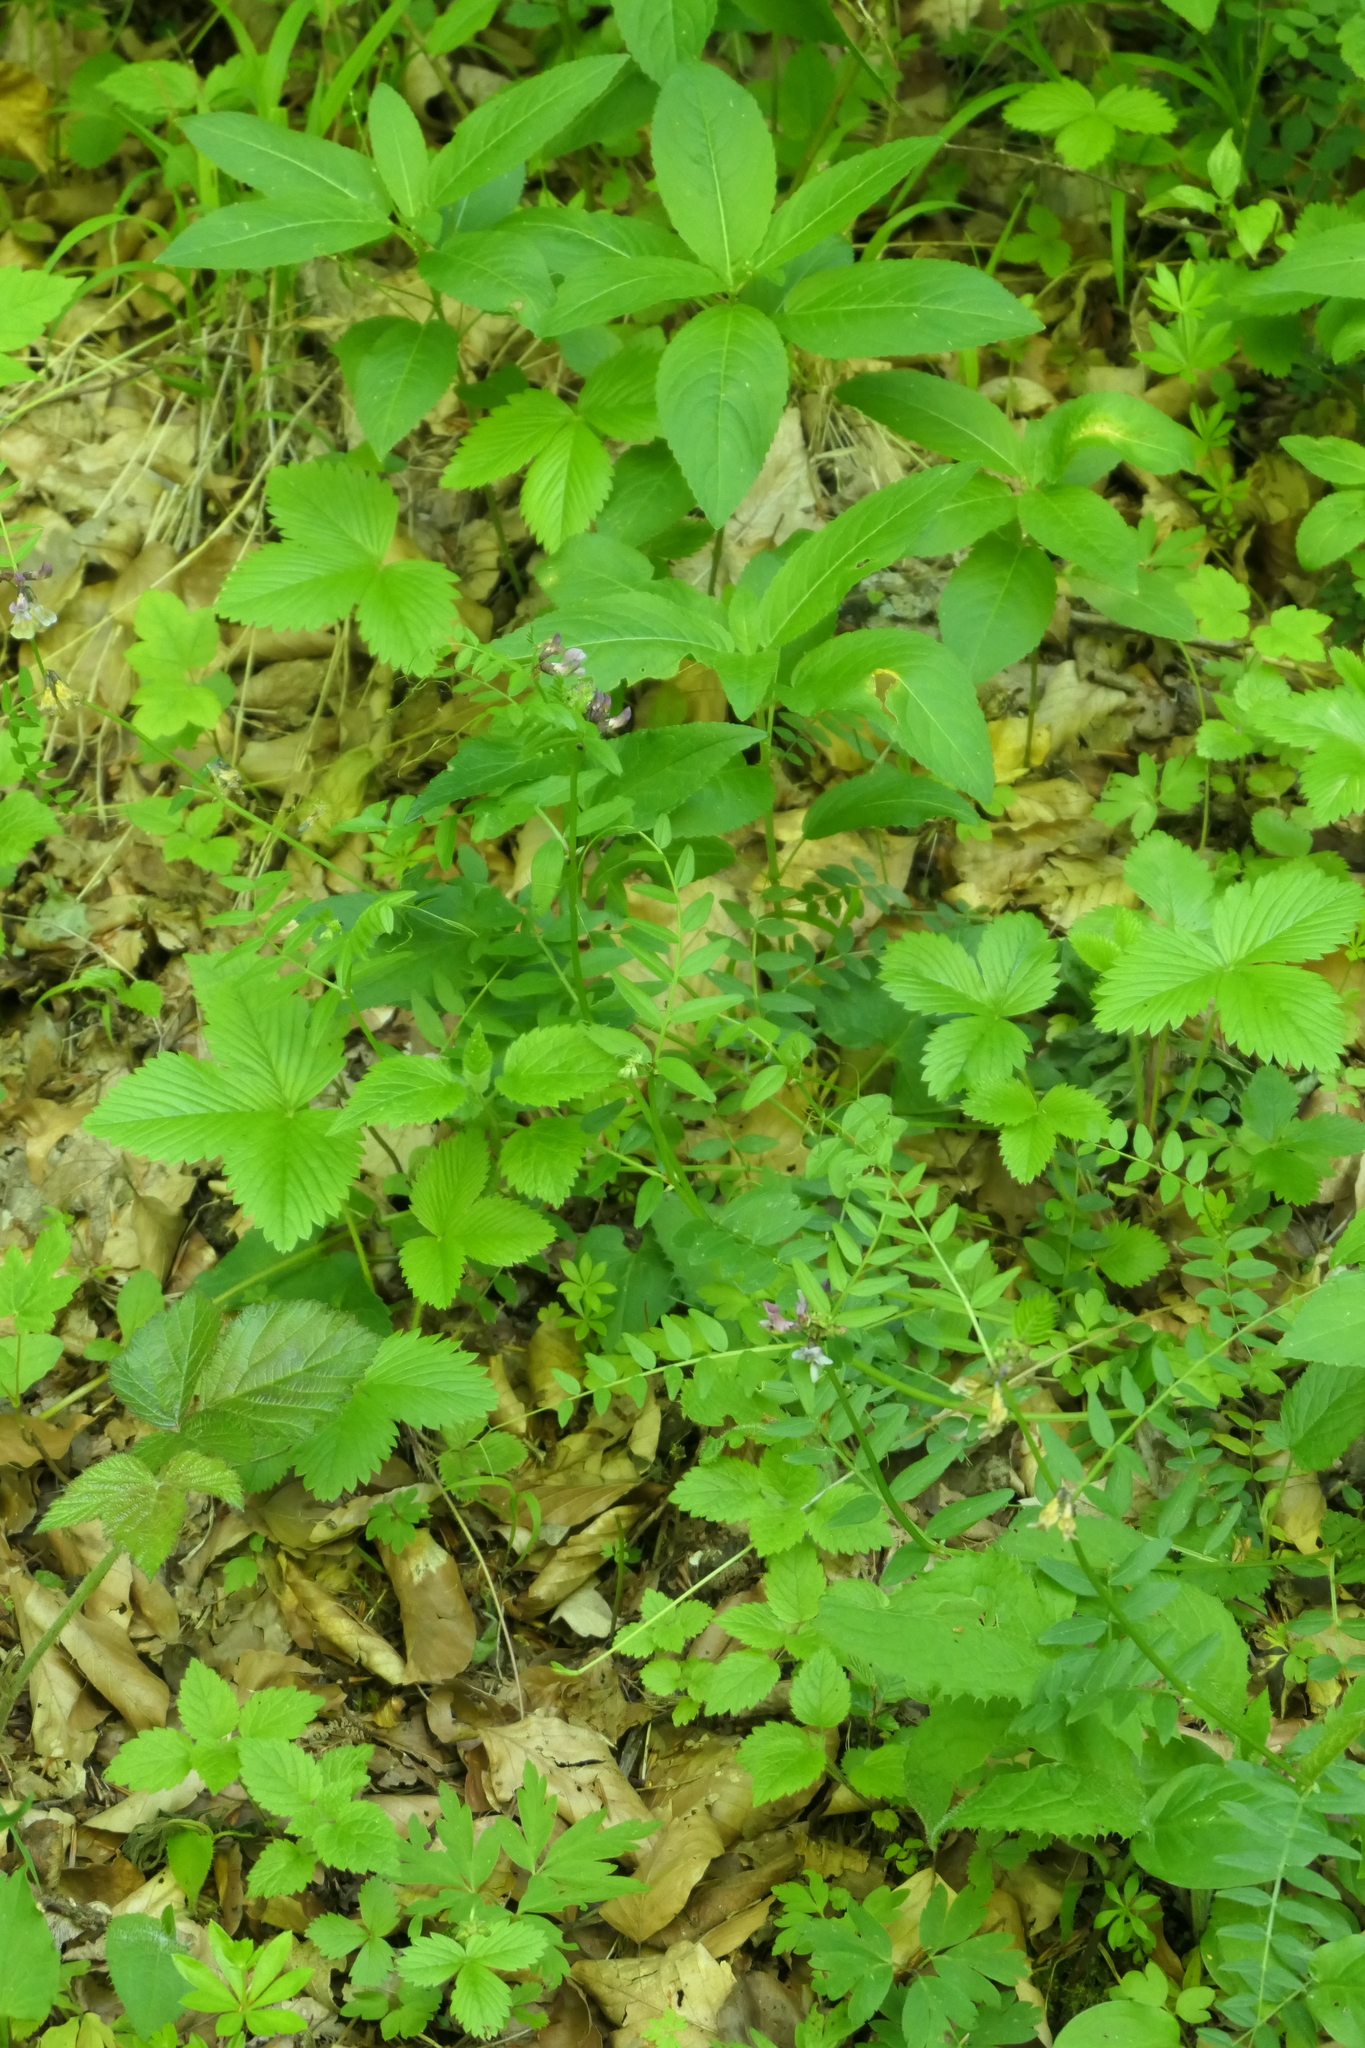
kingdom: Plantae
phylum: Tracheophyta
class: Magnoliopsida
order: Fabales
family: Fabaceae
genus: Vicia
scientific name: Vicia sepium
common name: Bush vetch
